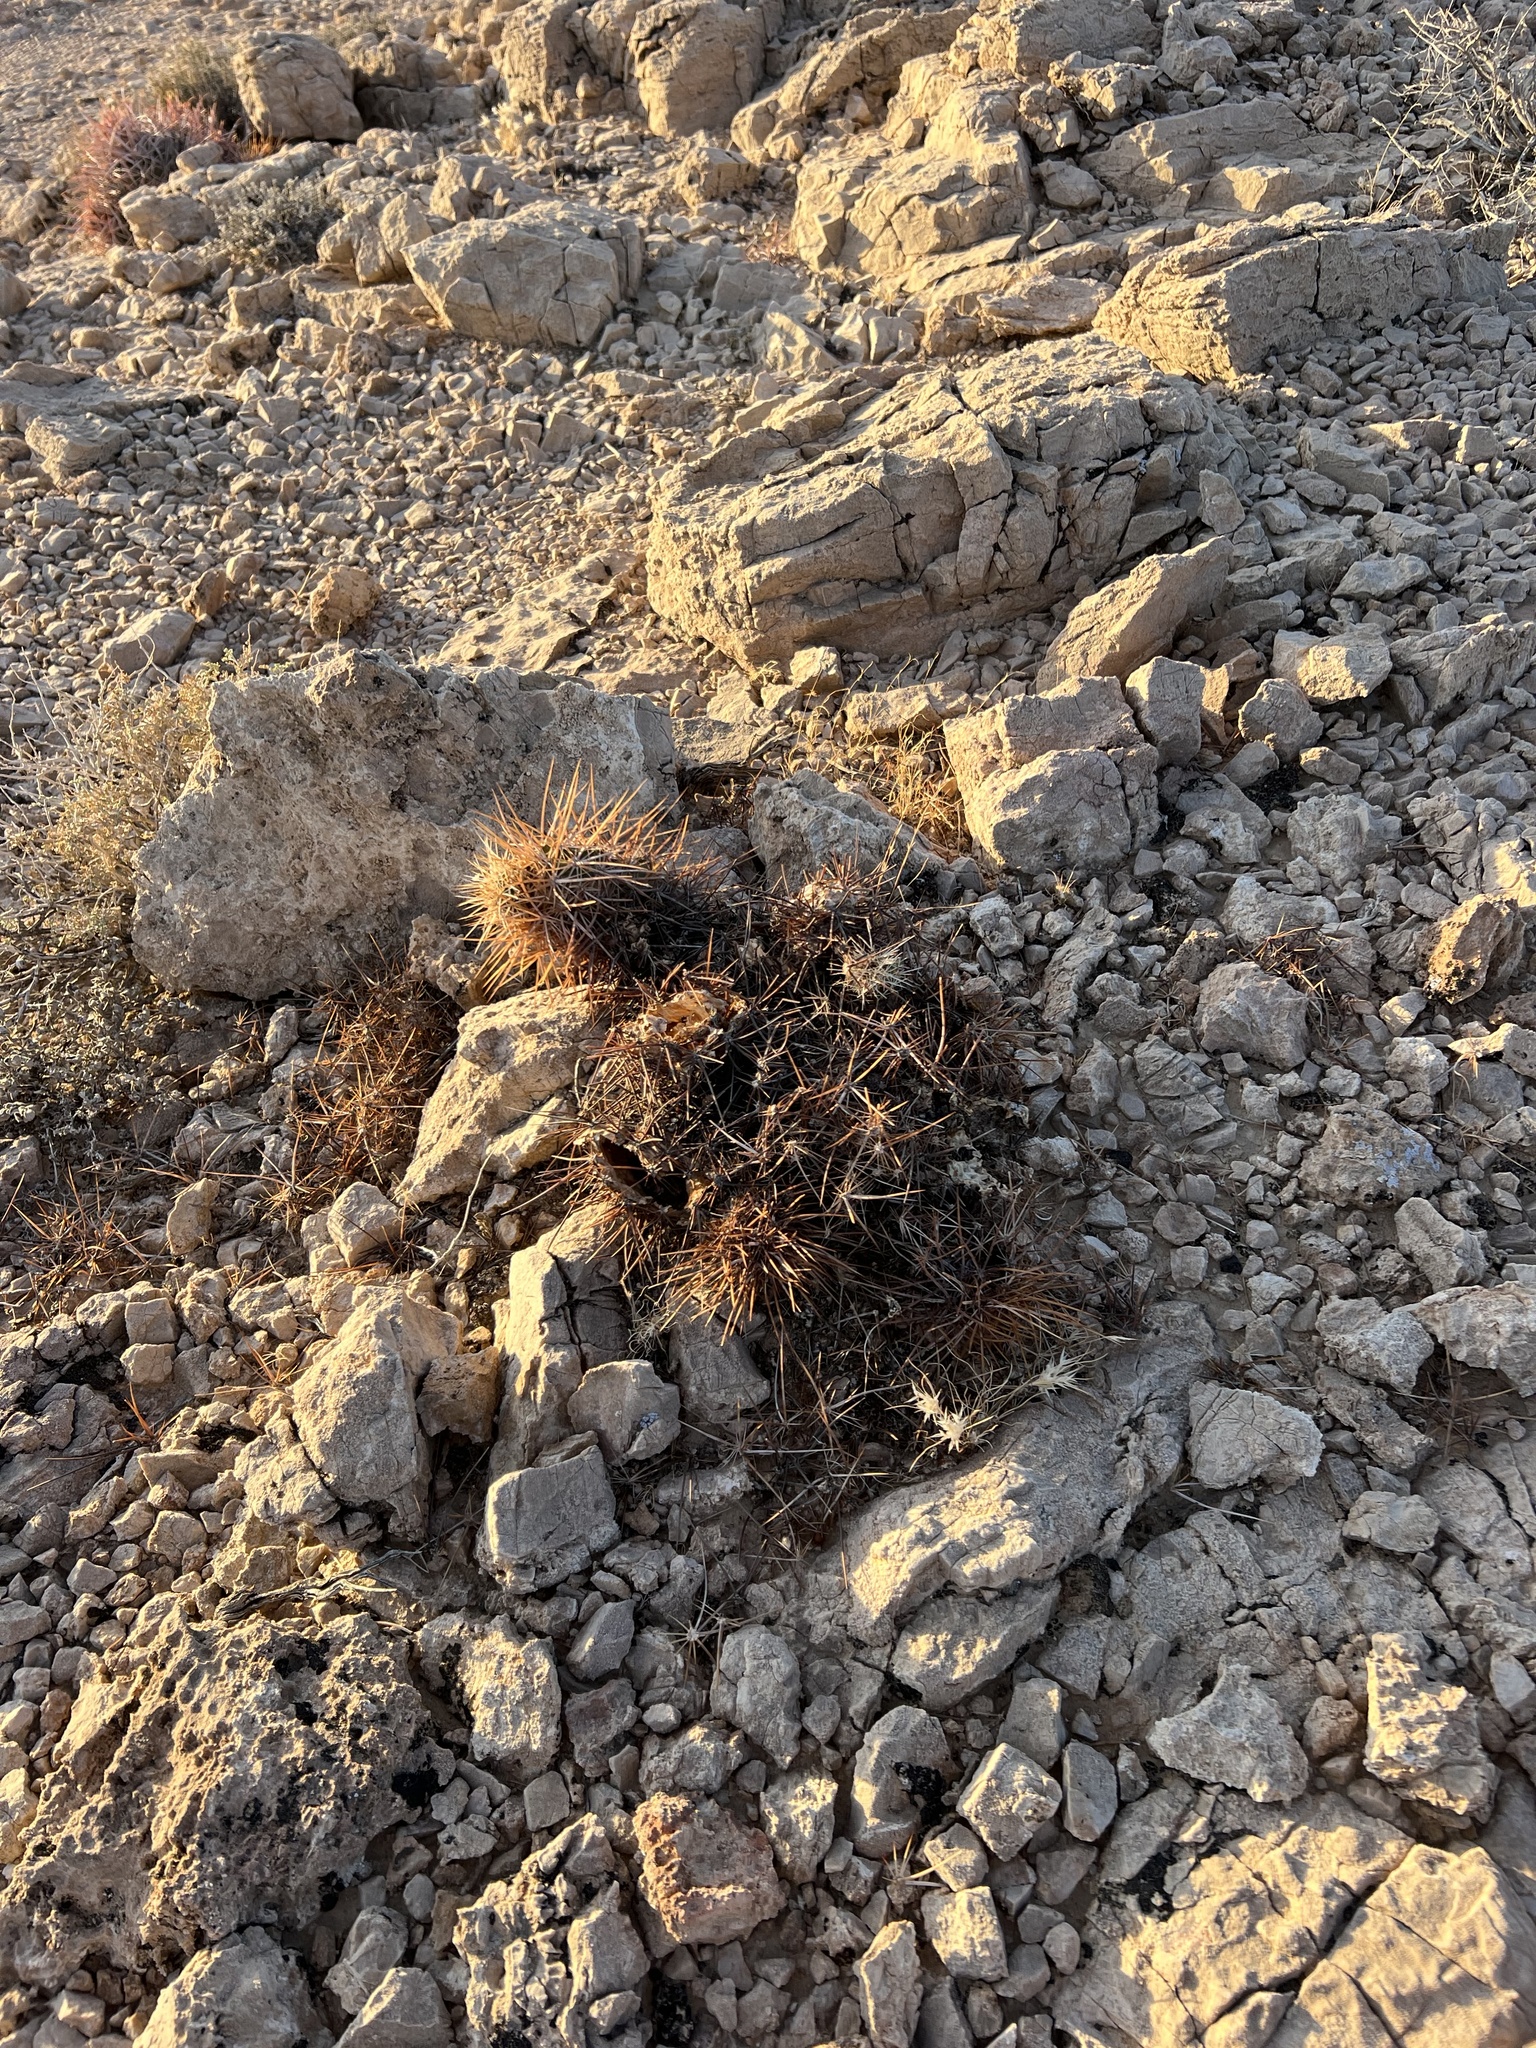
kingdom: Plantae
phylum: Tracheophyta
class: Magnoliopsida
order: Caryophyllales
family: Cactaceae
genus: Echinocereus
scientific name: Echinocereus engelmannii
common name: Engelmann's hedgehog cactus
